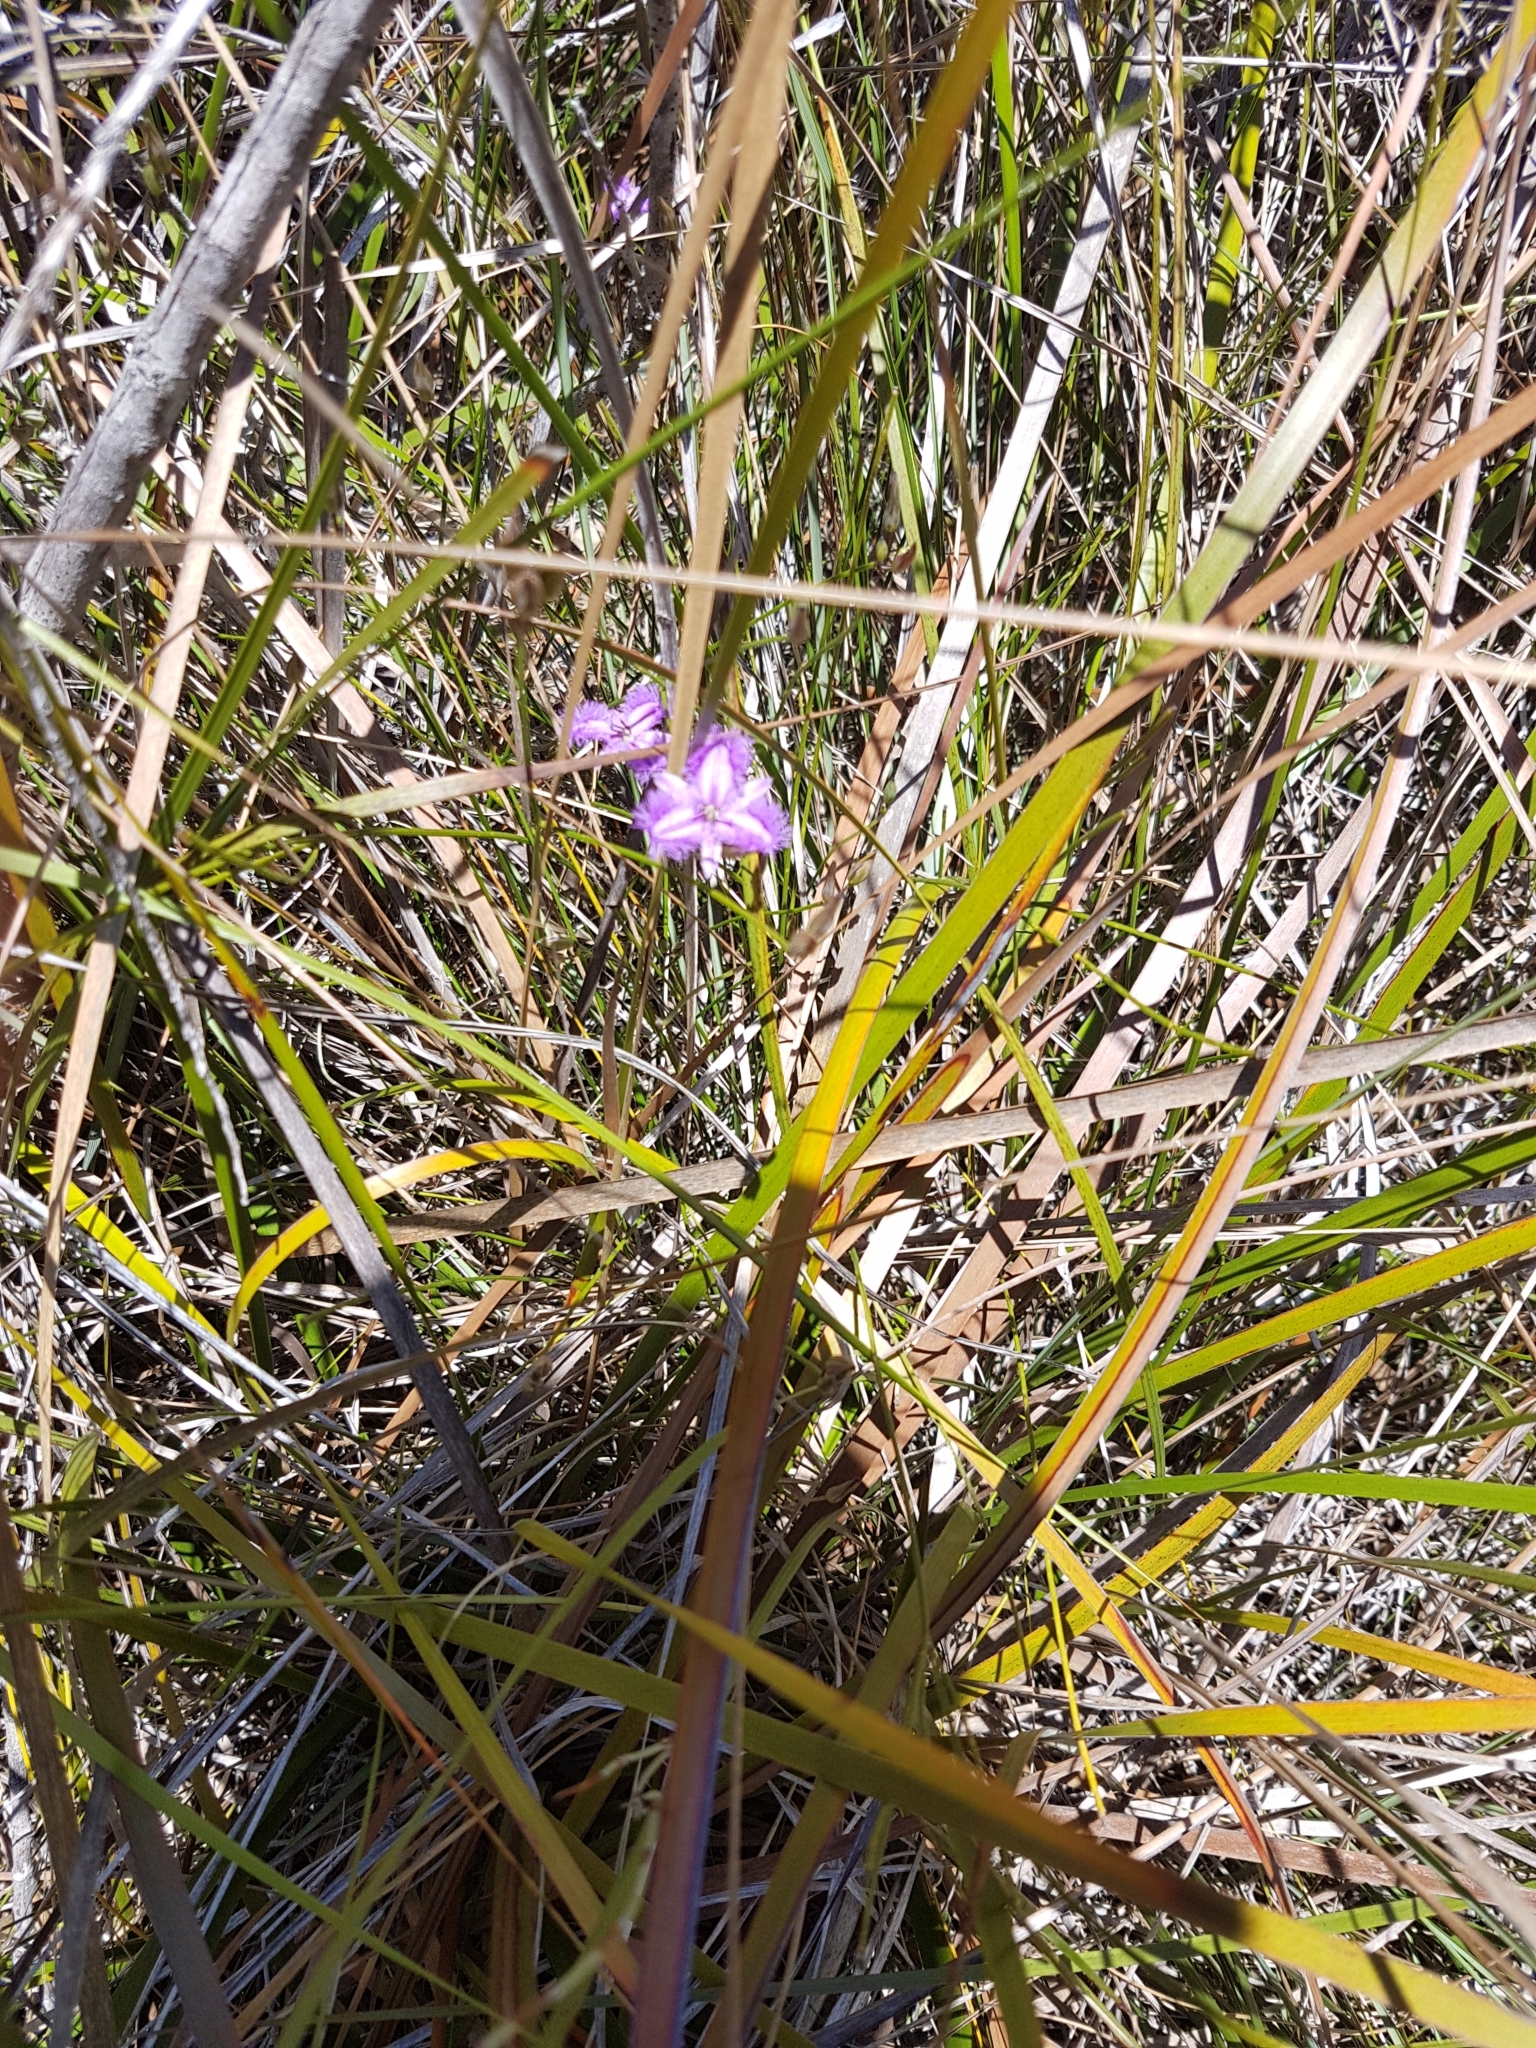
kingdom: Plantae
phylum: Tracheophyta
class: Liliopsida
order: Asparagales
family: Asparagaceae
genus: Thysanotus
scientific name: Thysanotus tuberosus
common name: Common fringed-lily
